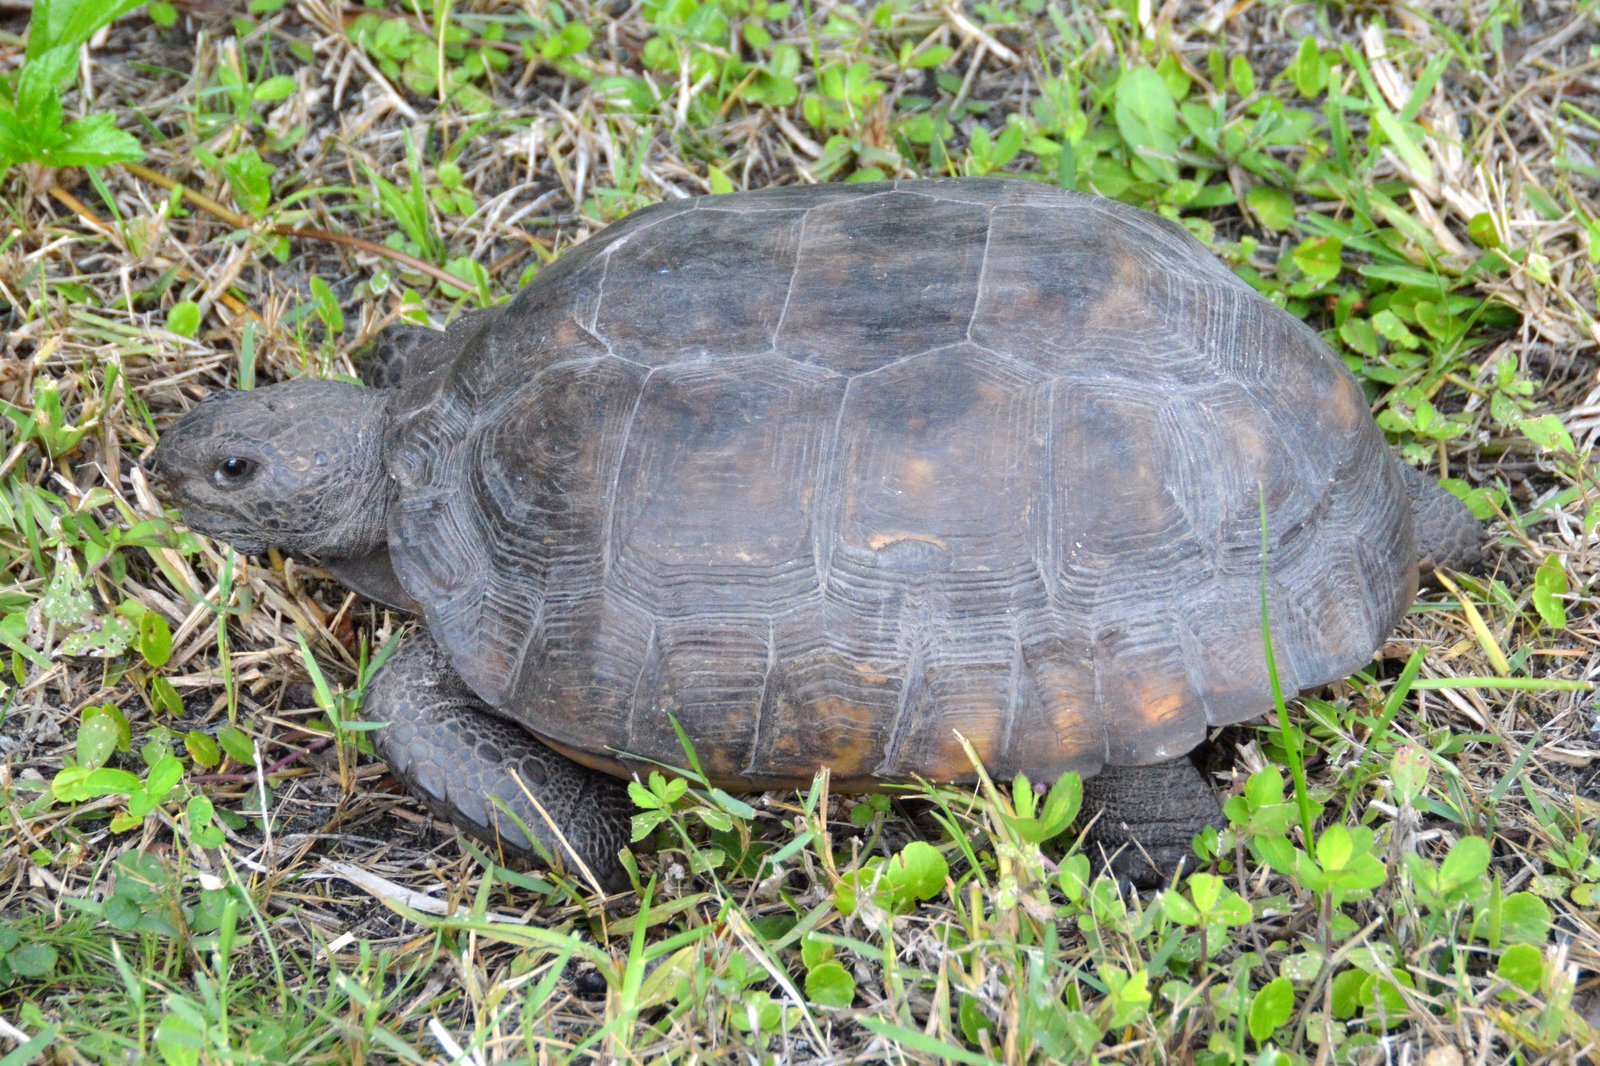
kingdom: Animalia
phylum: Chordata
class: Testudines
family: Testudinidae
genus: Gopherus
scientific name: Gopherus polyphemus
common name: Florida gopher tortoise
